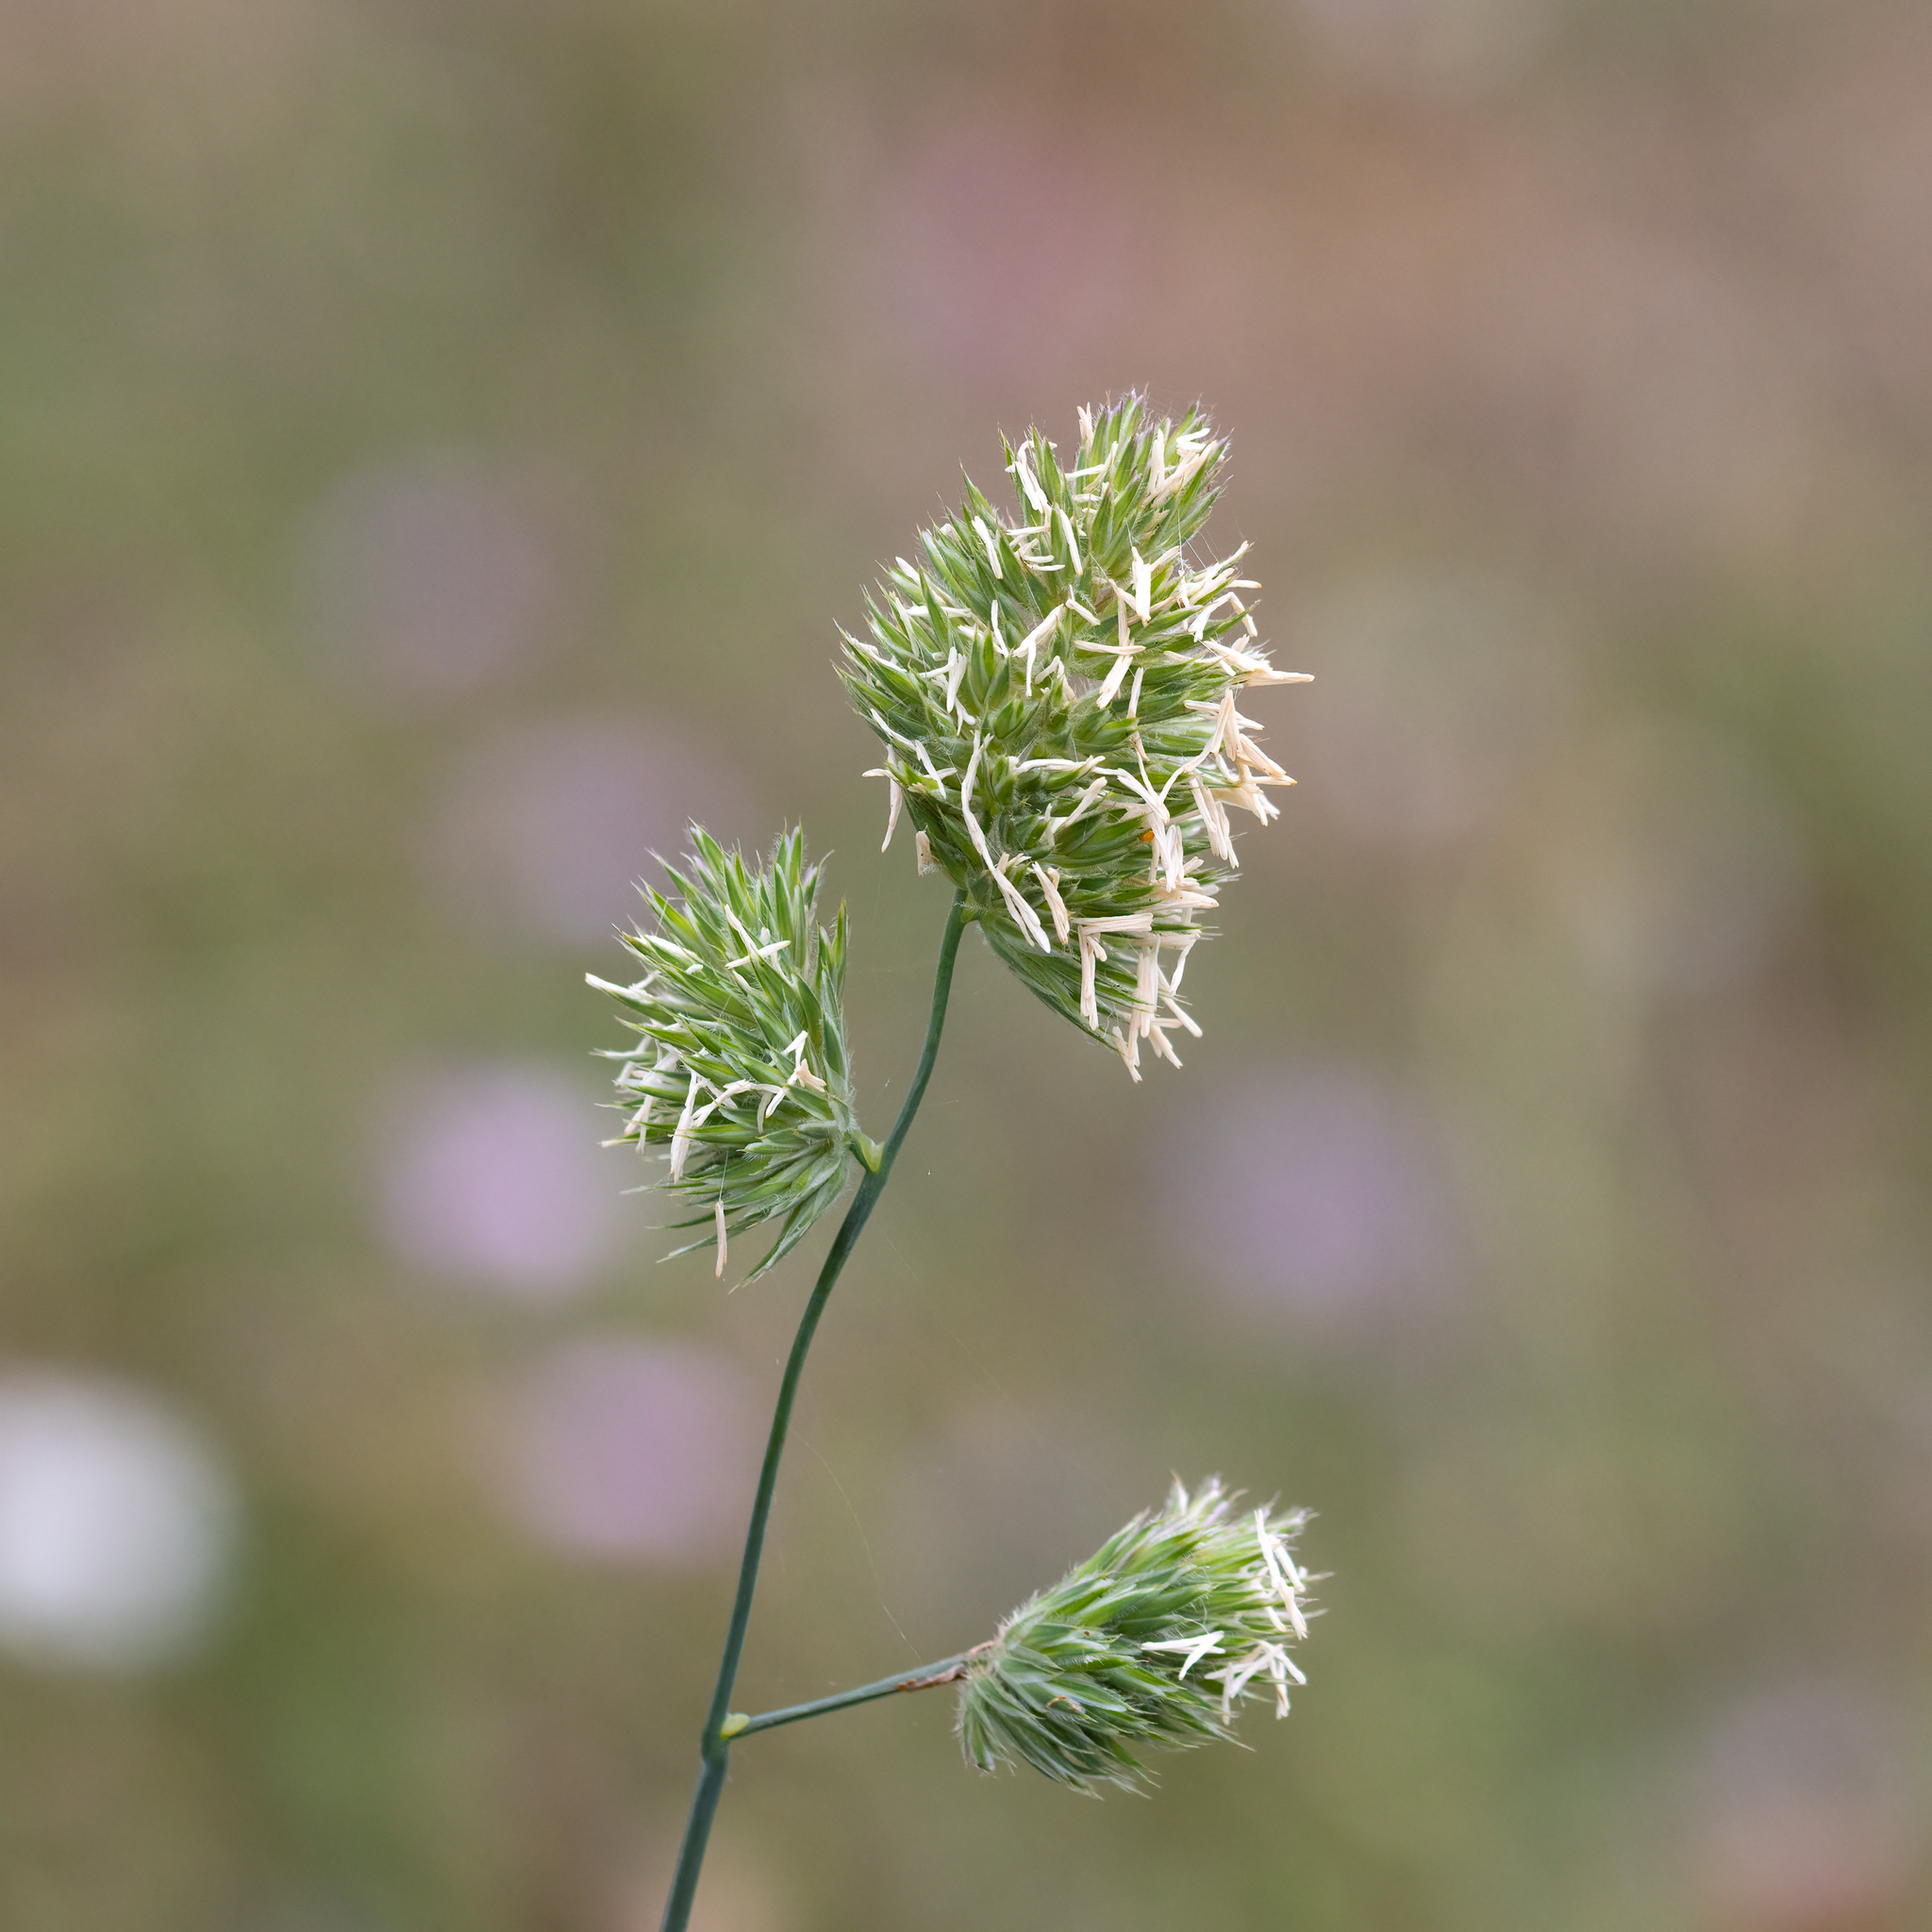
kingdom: Plantae
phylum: Tracheophyta
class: Liliopsida
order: Poales
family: Poaceae
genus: Dactylis
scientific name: Dactylis glomerata
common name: Orchardgrass
